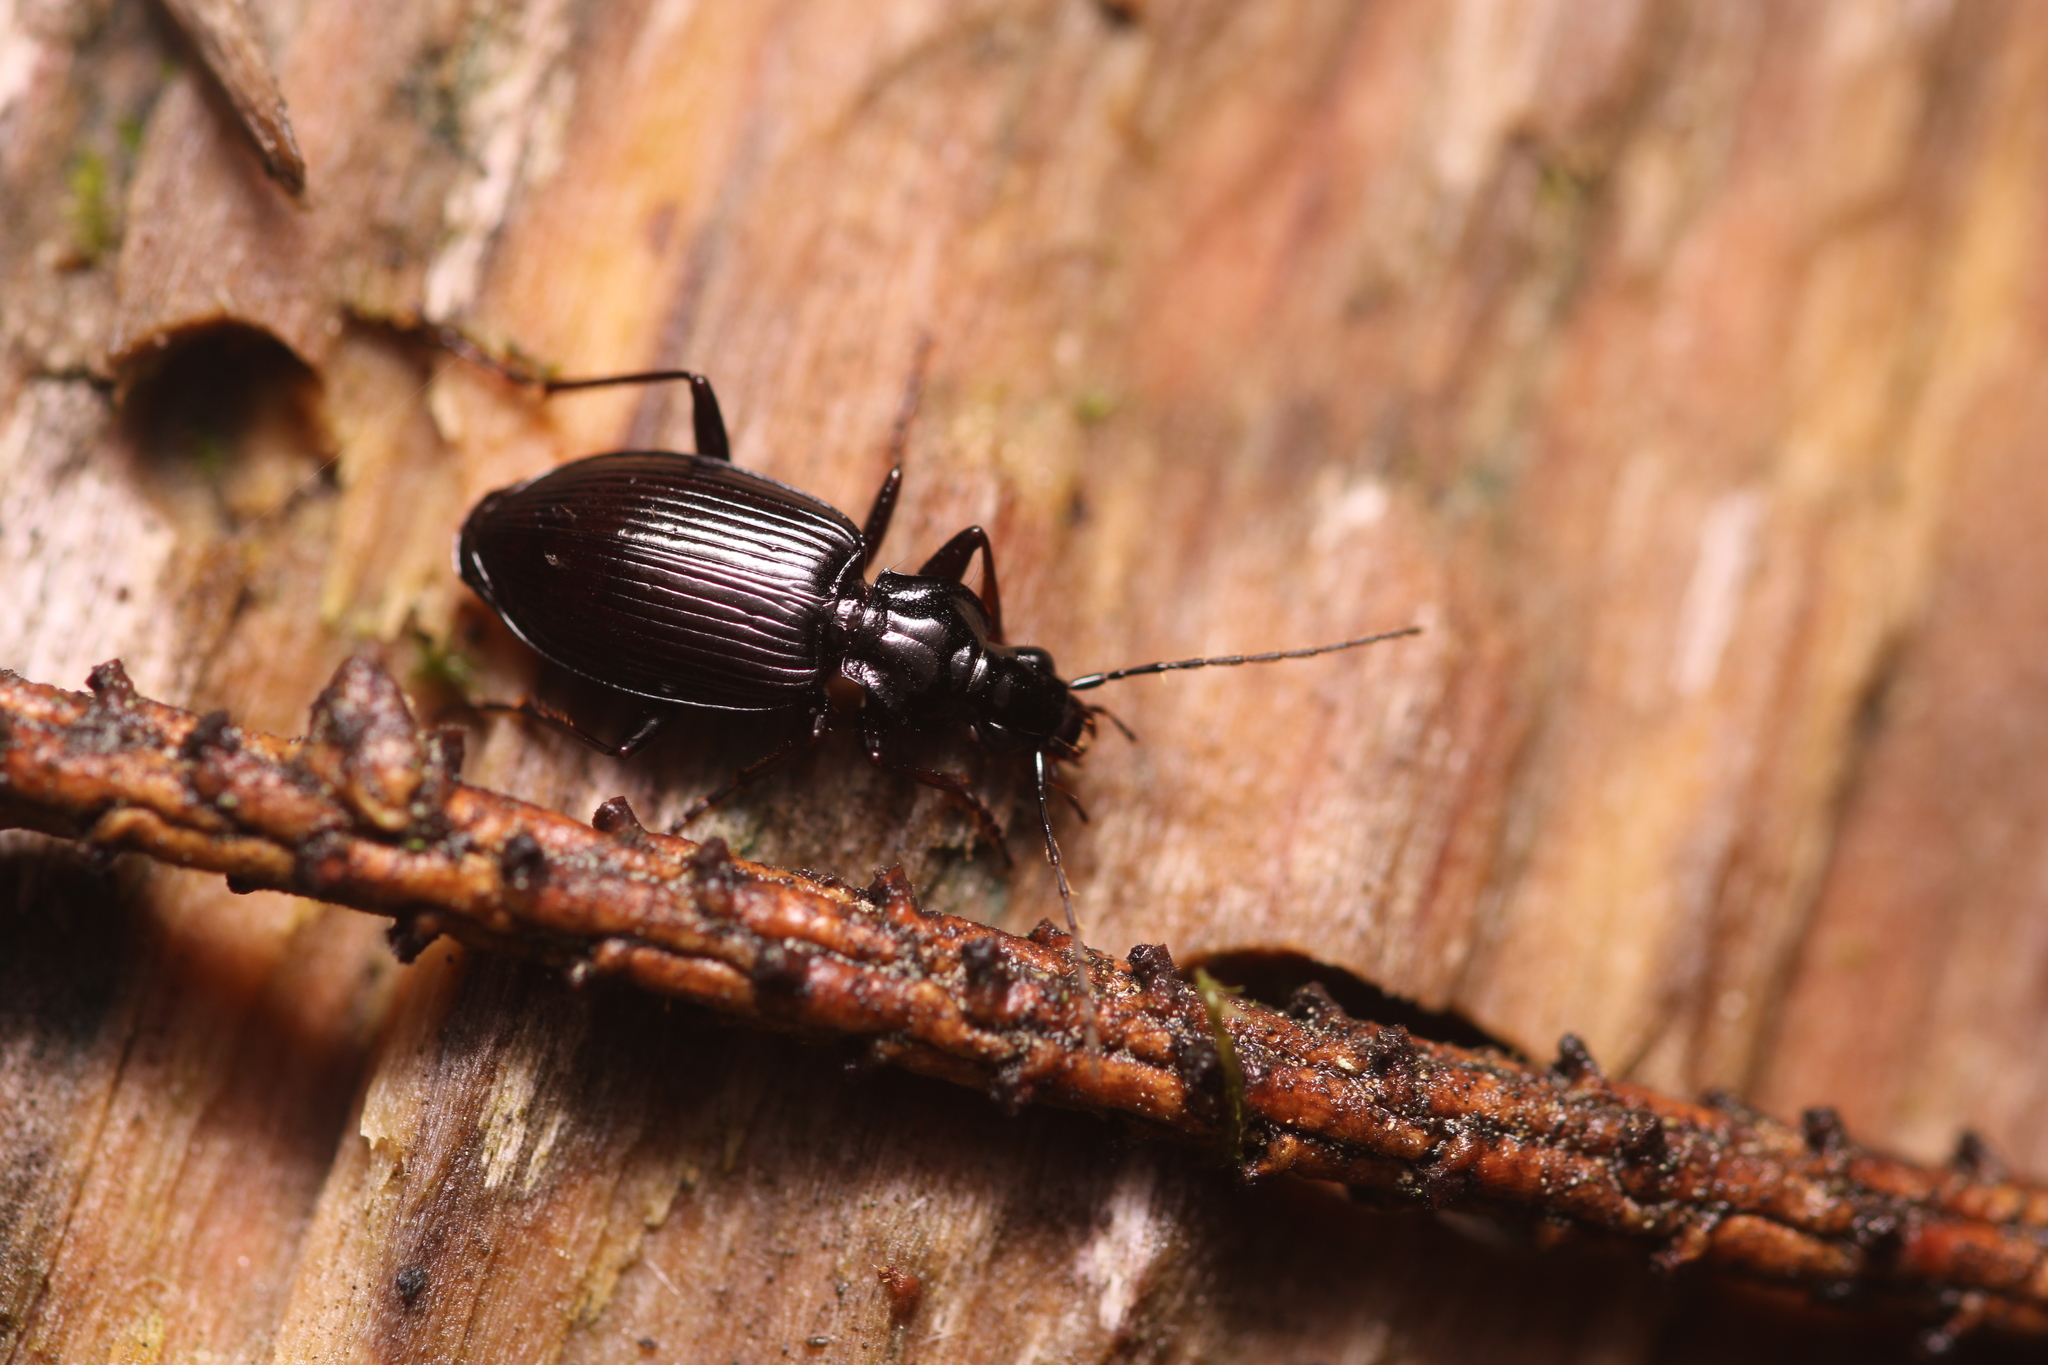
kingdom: Animalia
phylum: Arthropoda
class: Insecta
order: Coleoptera
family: Carabidae
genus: Platynus
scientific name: Platynus assimilis
